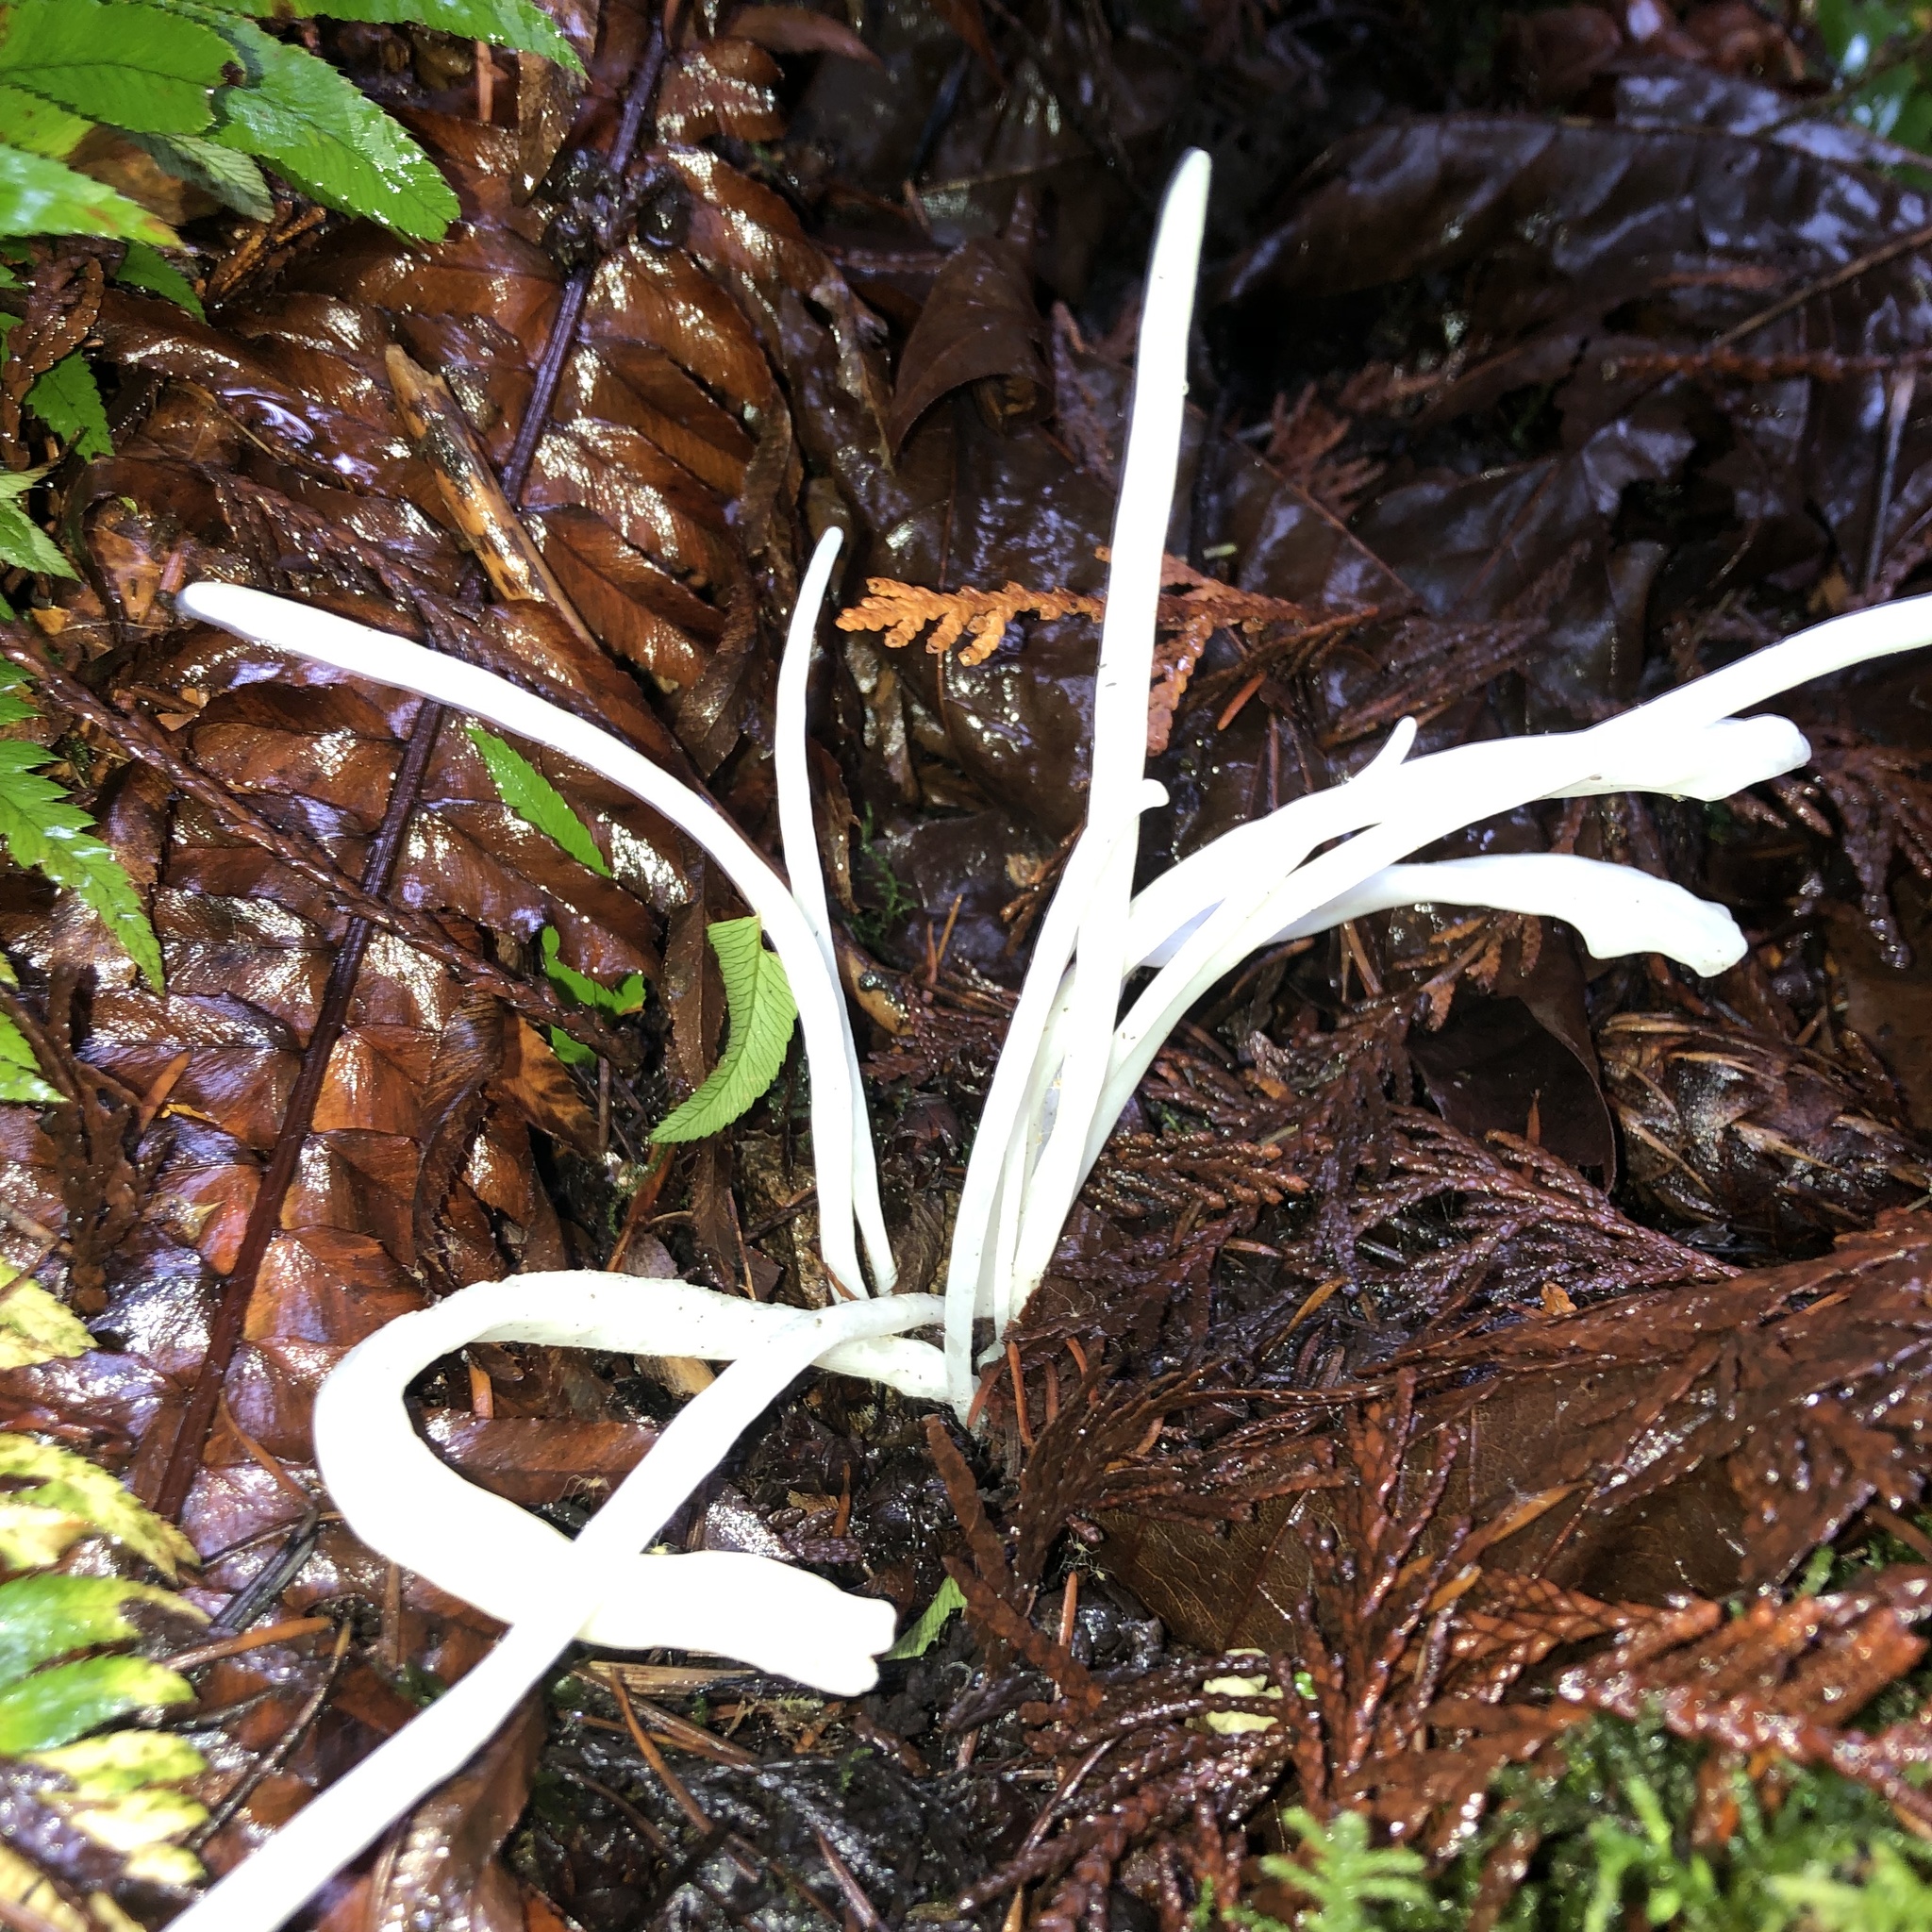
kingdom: Fungi
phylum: Basidiomycota
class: Agaricomycetes
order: Agaricales
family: Clavariaceae
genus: Clavaria
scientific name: Clavaria fragilis
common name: White spindles
